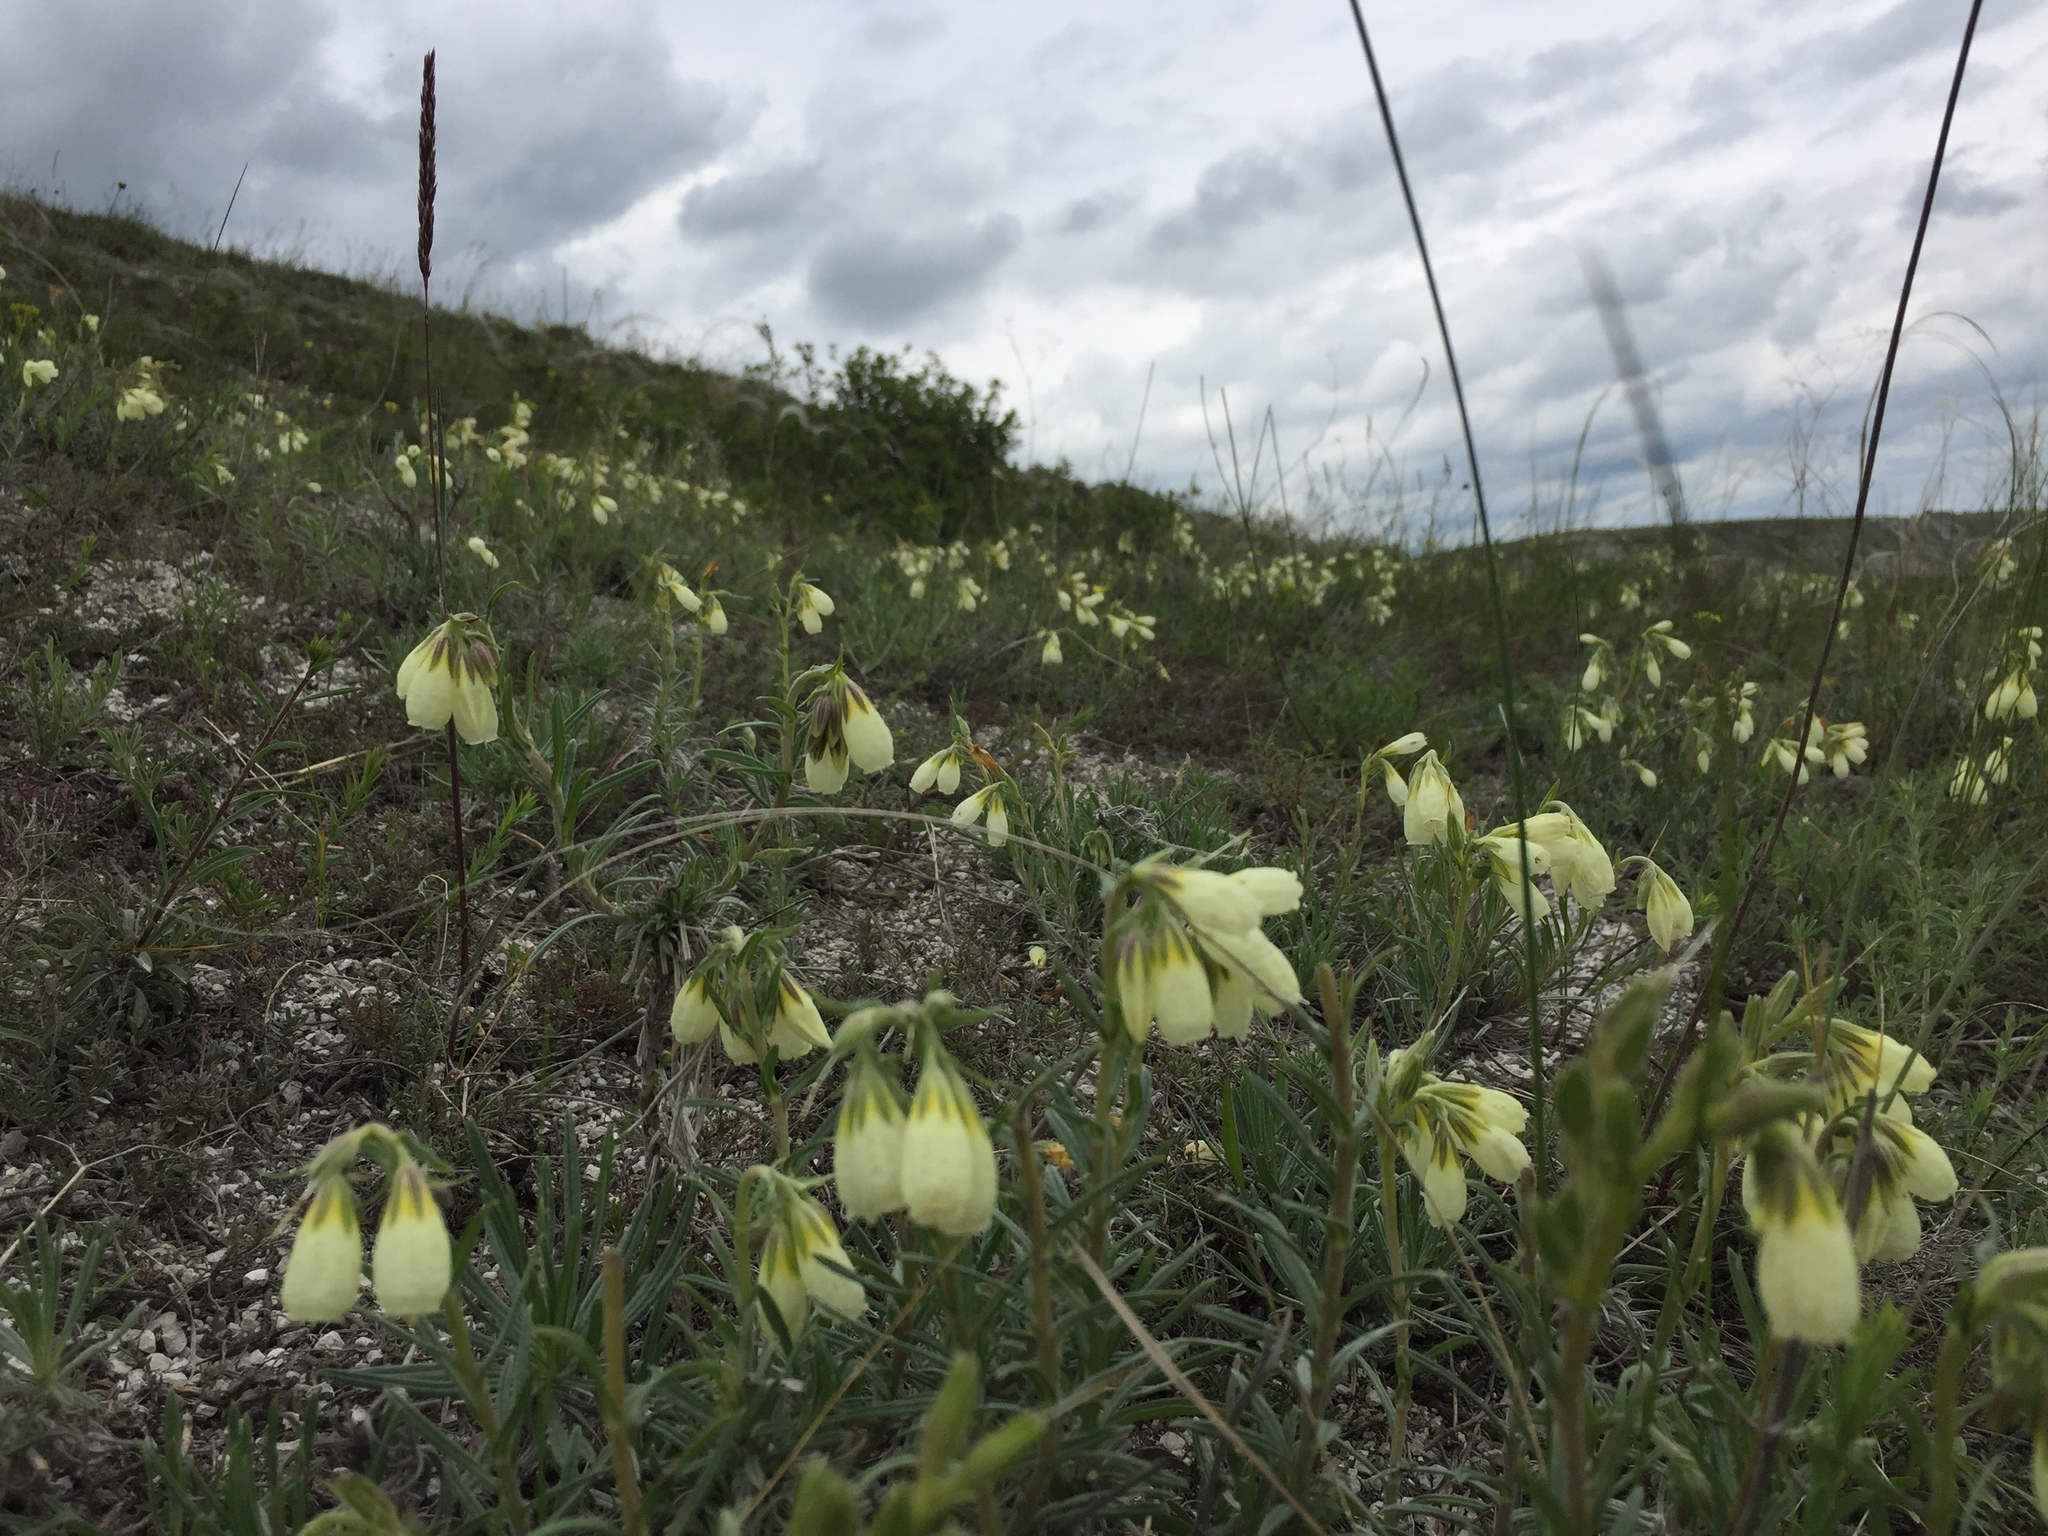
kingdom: Plantae
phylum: Tracheophyta
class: Magnoliopsida
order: Boraginales
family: Boraginaceae
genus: Onosma
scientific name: Onosma simplicissima
